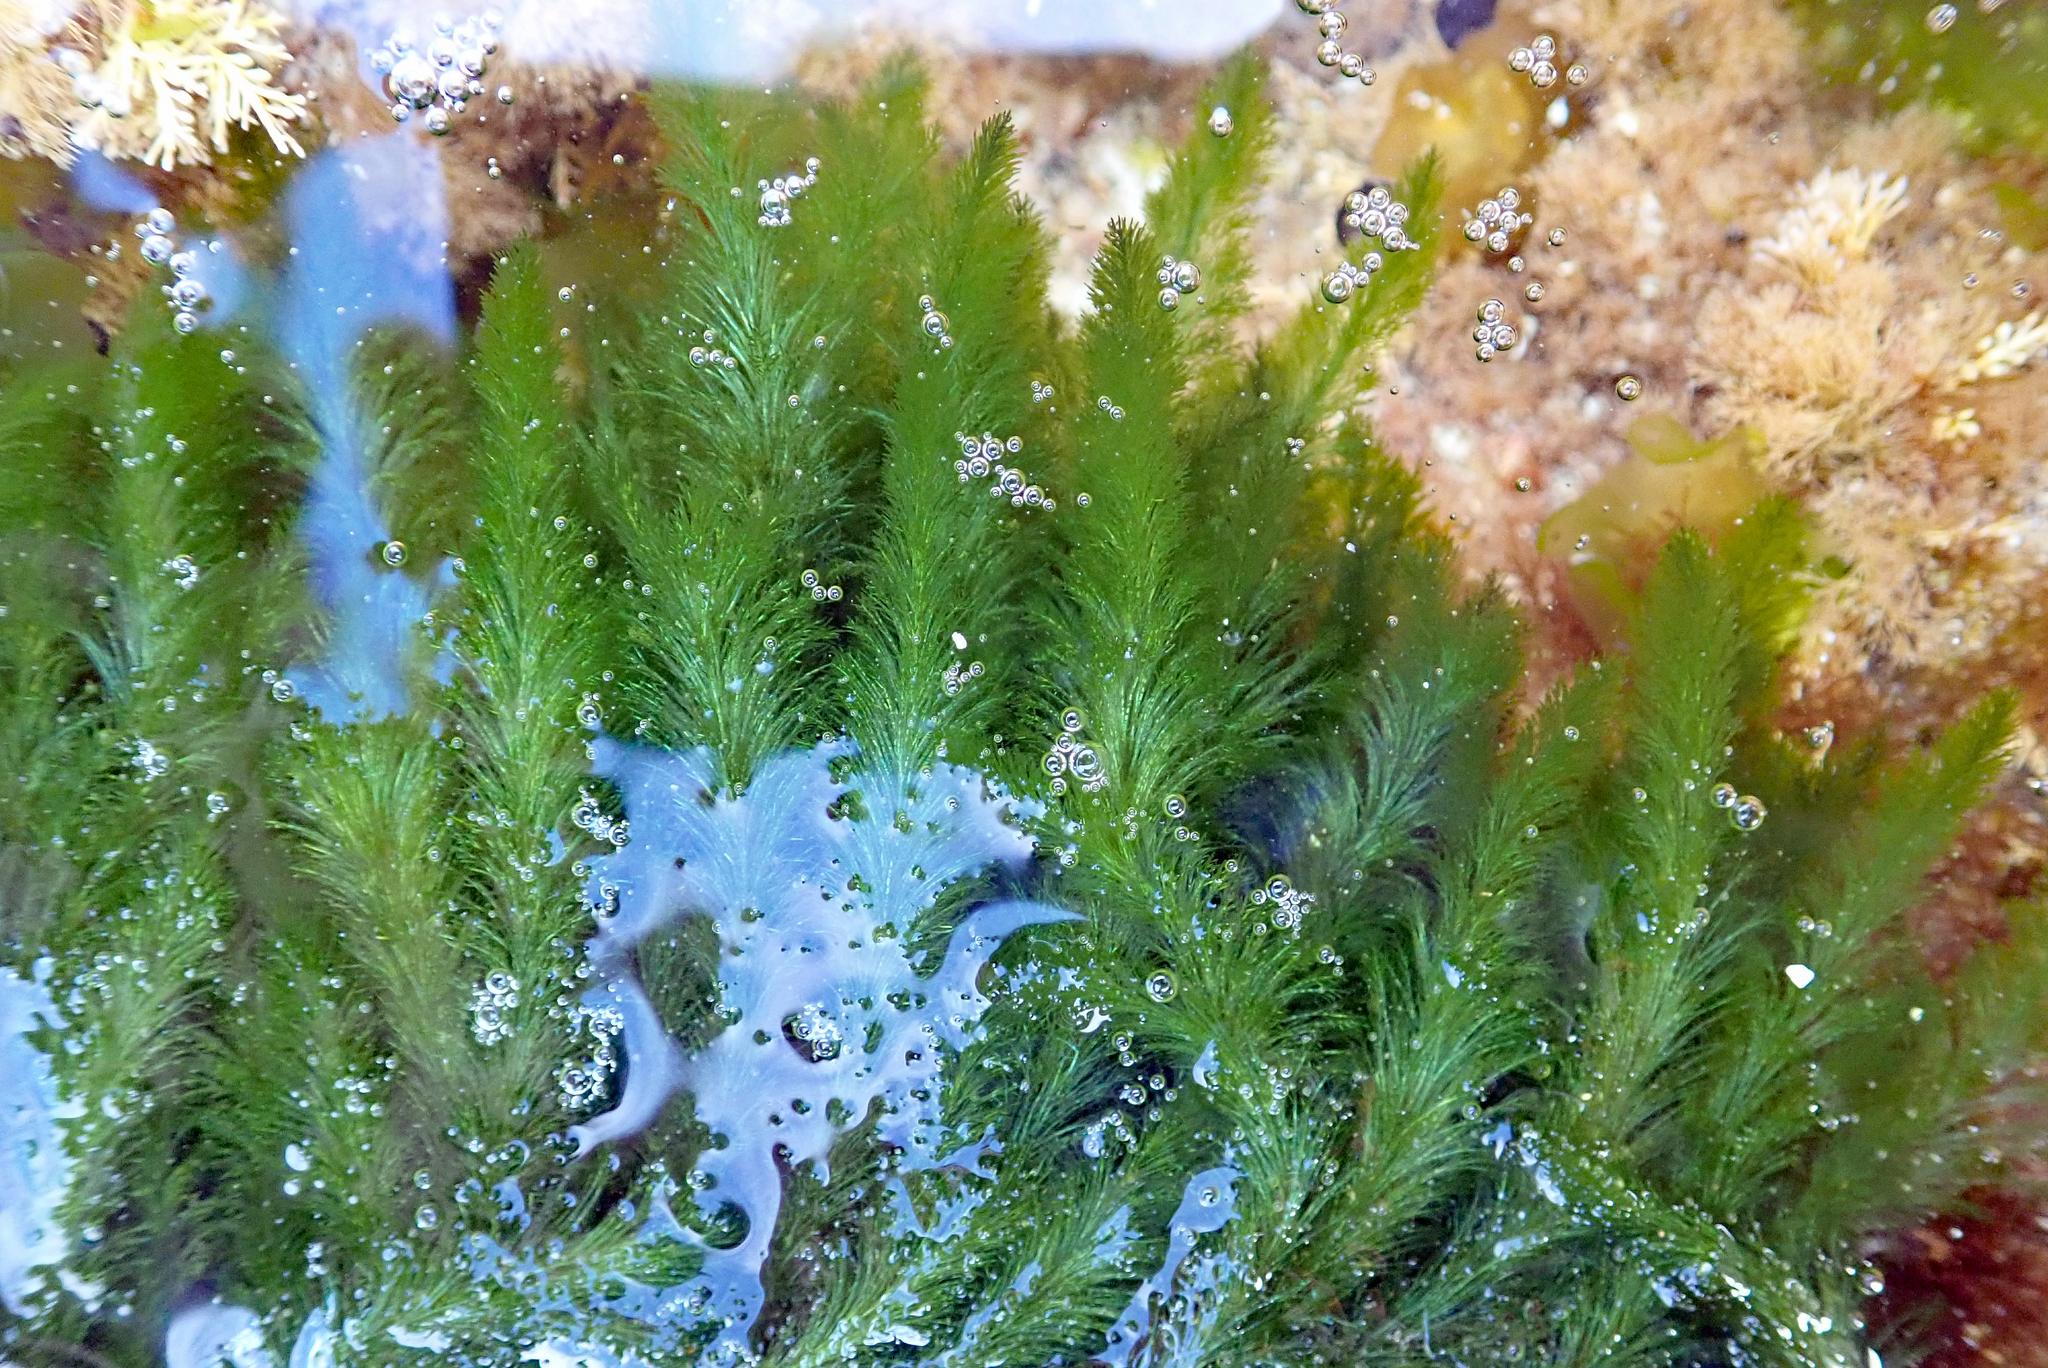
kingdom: Plantae
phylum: Chlorophyta
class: Ulvophyceae
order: Bryopsidales
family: Bryopsidaceae
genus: Bryopsis
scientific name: Bryopsis vestita
